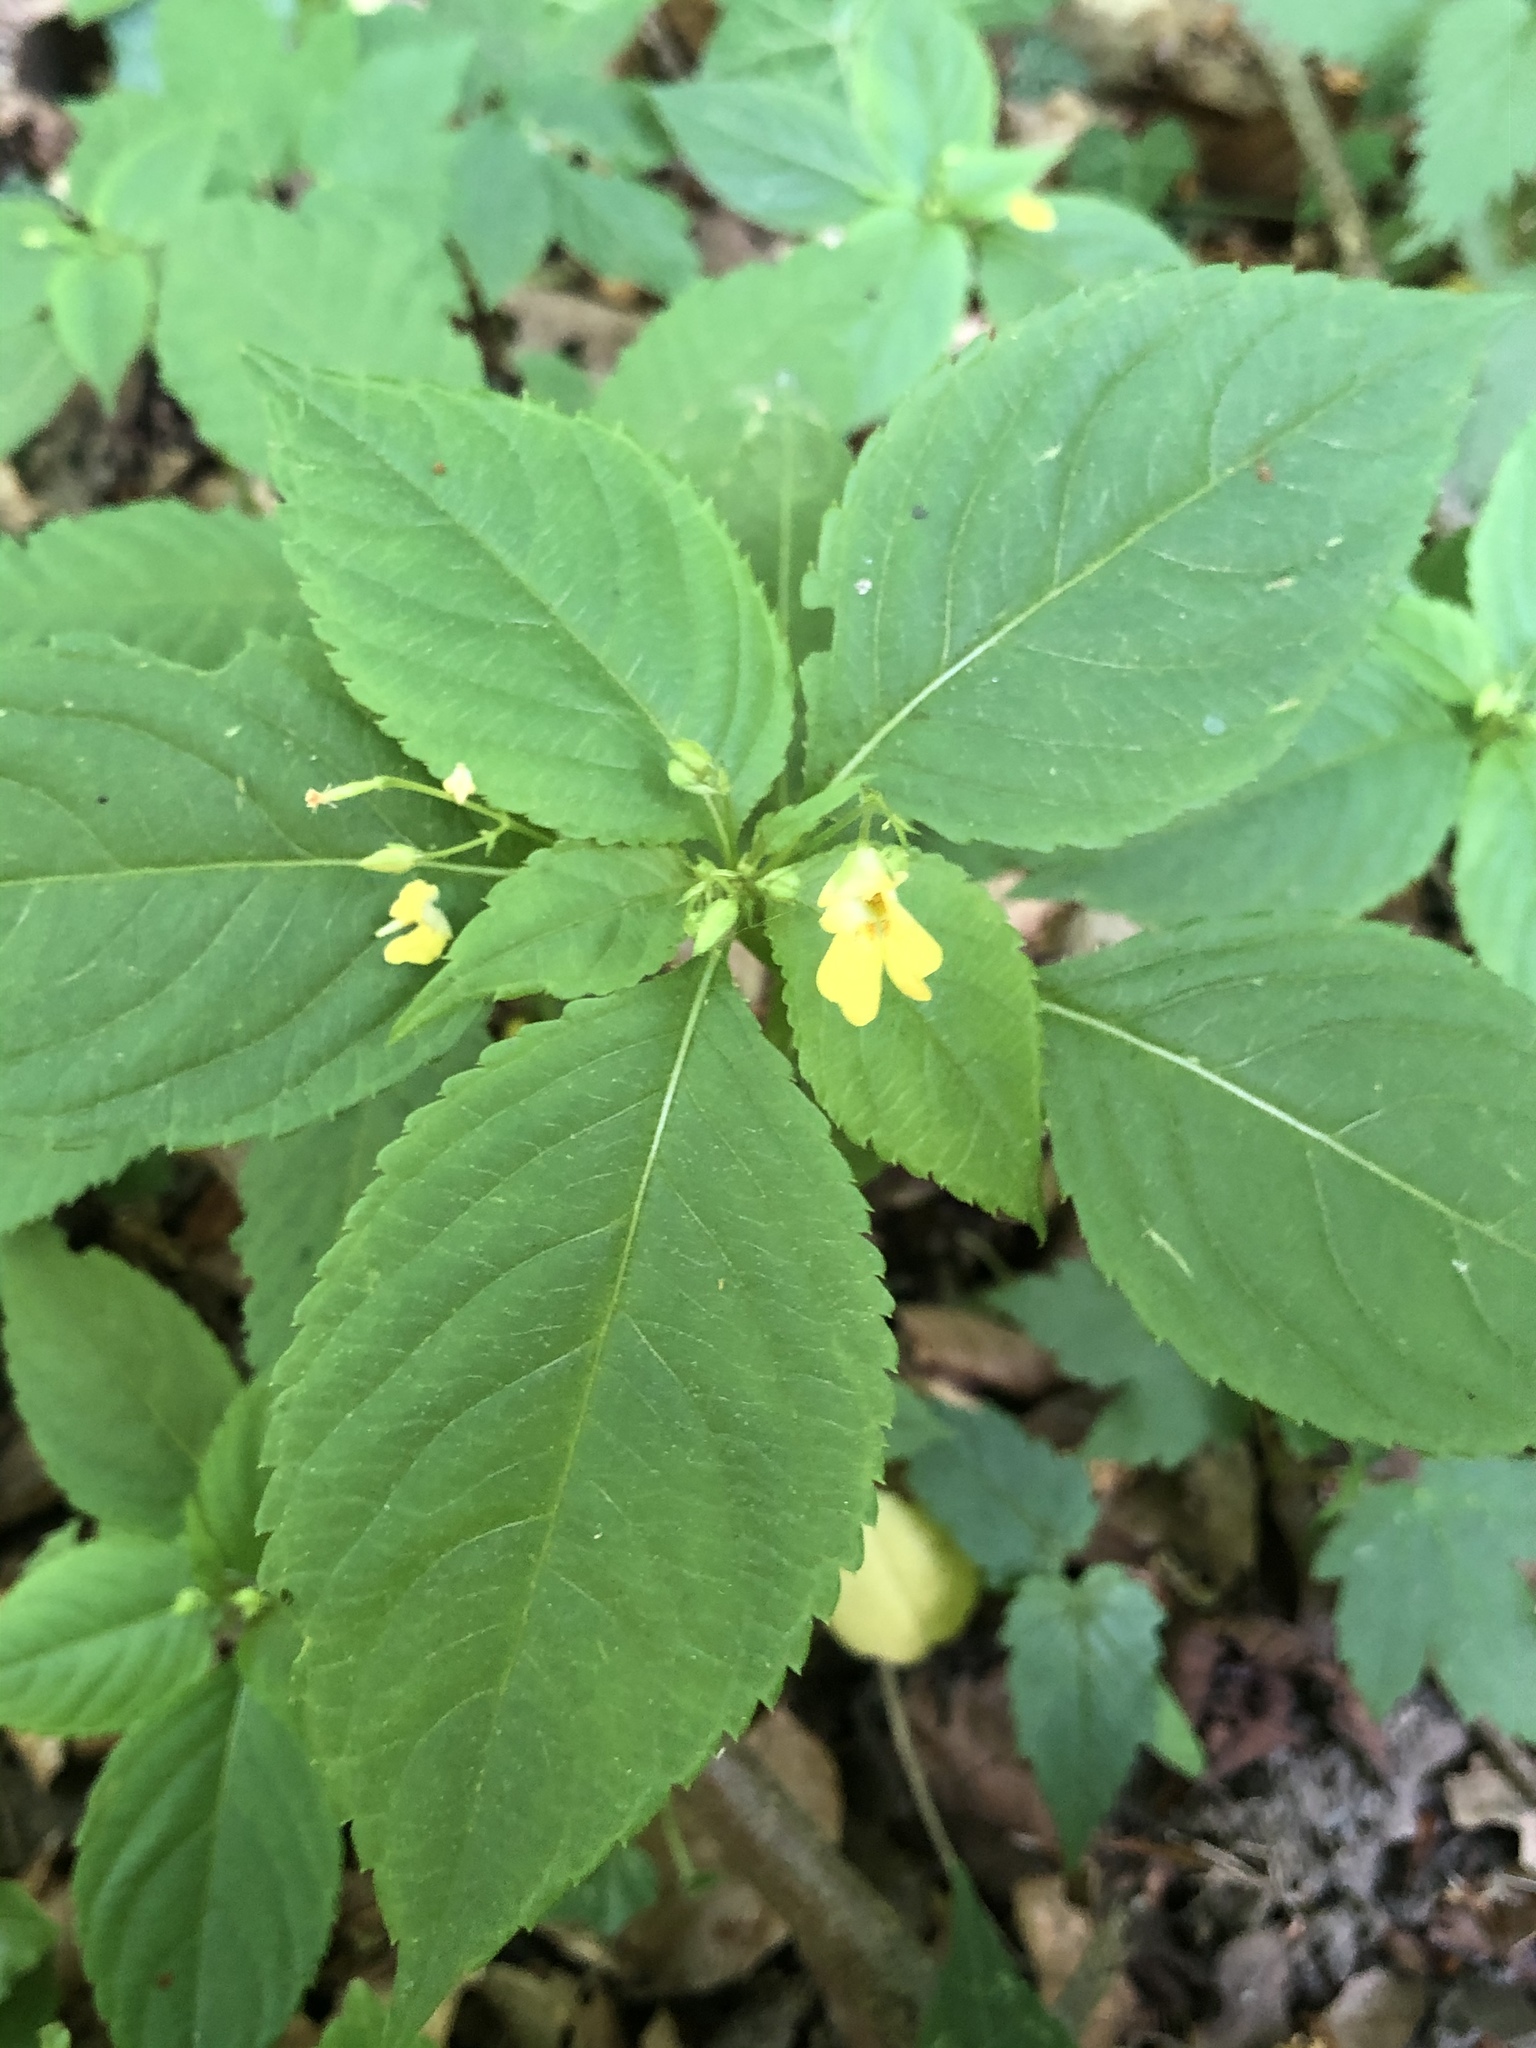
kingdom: Plantae
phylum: Tracheophyta
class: Magnoliopsida
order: Ericales
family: Balsaminaceae
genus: Impatiens
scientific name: Impatiens parviflora
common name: Small balsam
